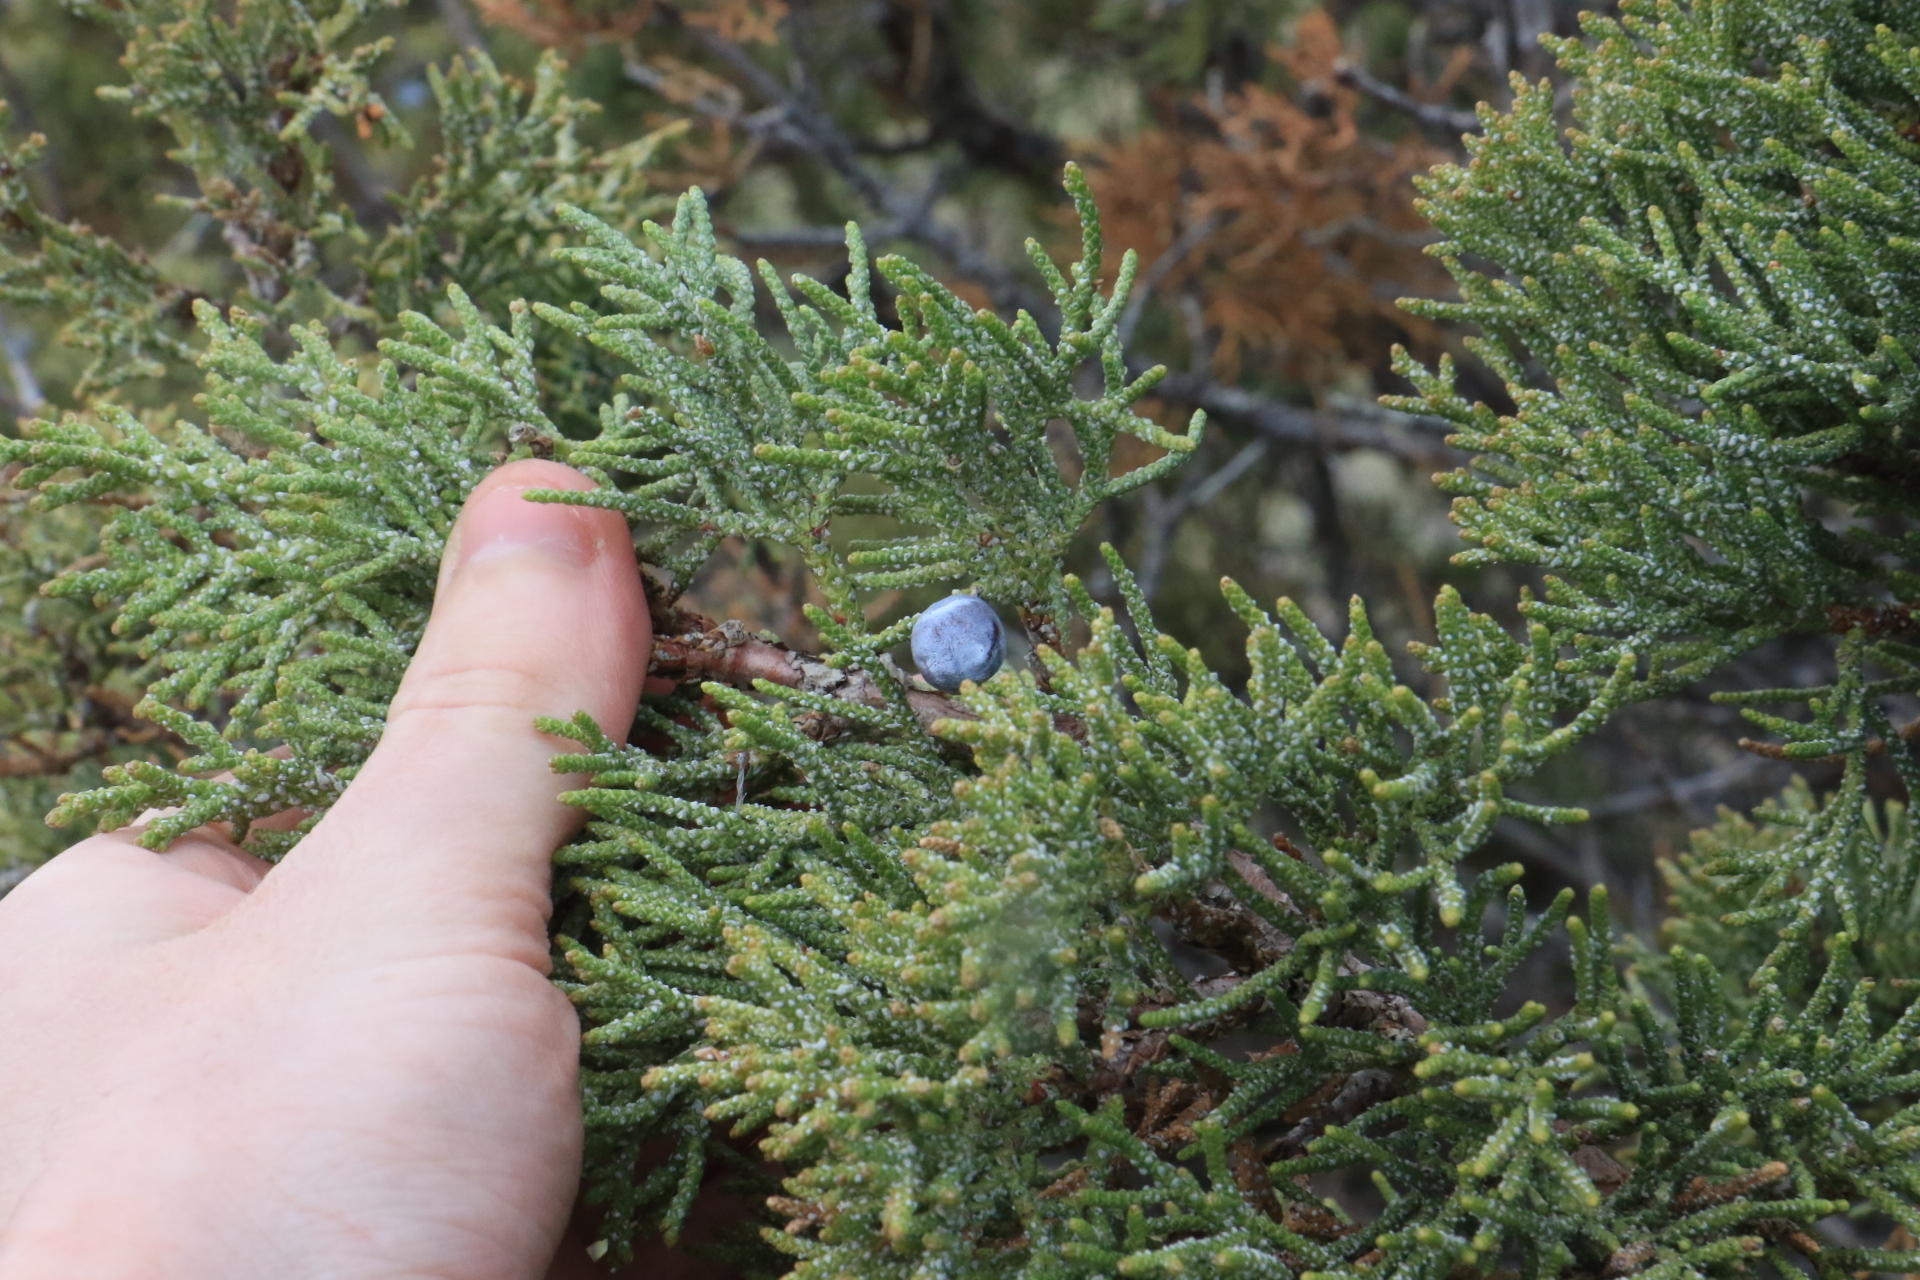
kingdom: Plantae
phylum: Tracheophyta
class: Pinopsida
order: Pinales
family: Cupressaceae
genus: Juniperus
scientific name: Juniperus occidentalis
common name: Western juniper
